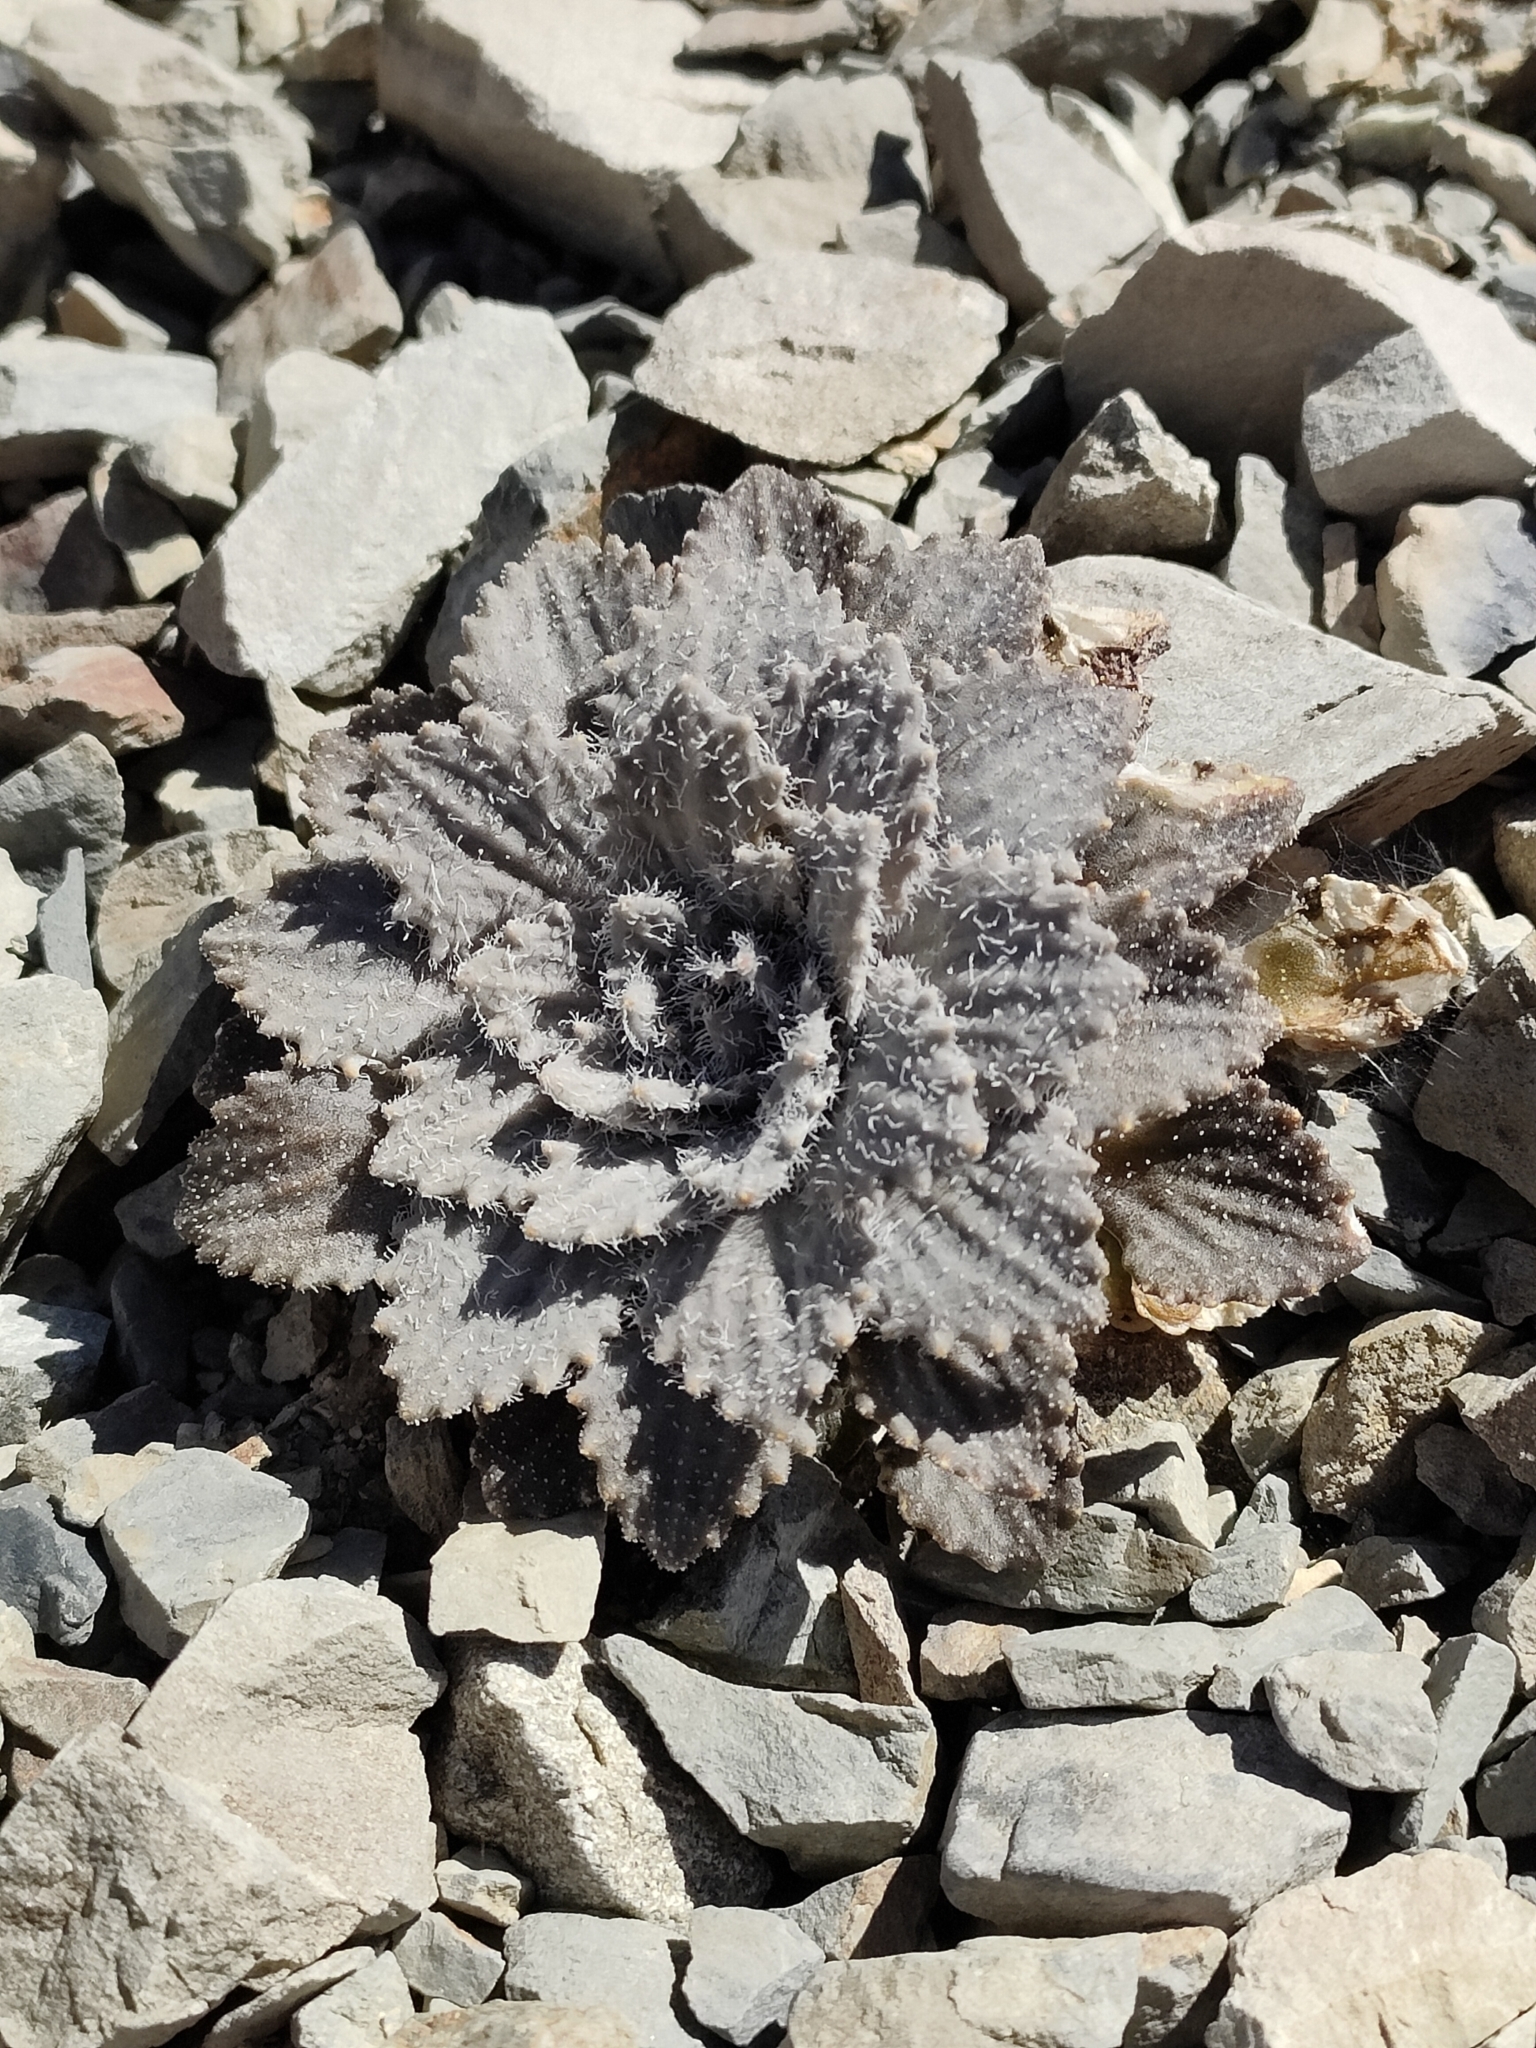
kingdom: Plantae
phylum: Tracheophyta
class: Magnoliopsida
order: Brassicales
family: Brassicaceae
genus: Notothlaspi
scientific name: Notothlaspi rosulatum
